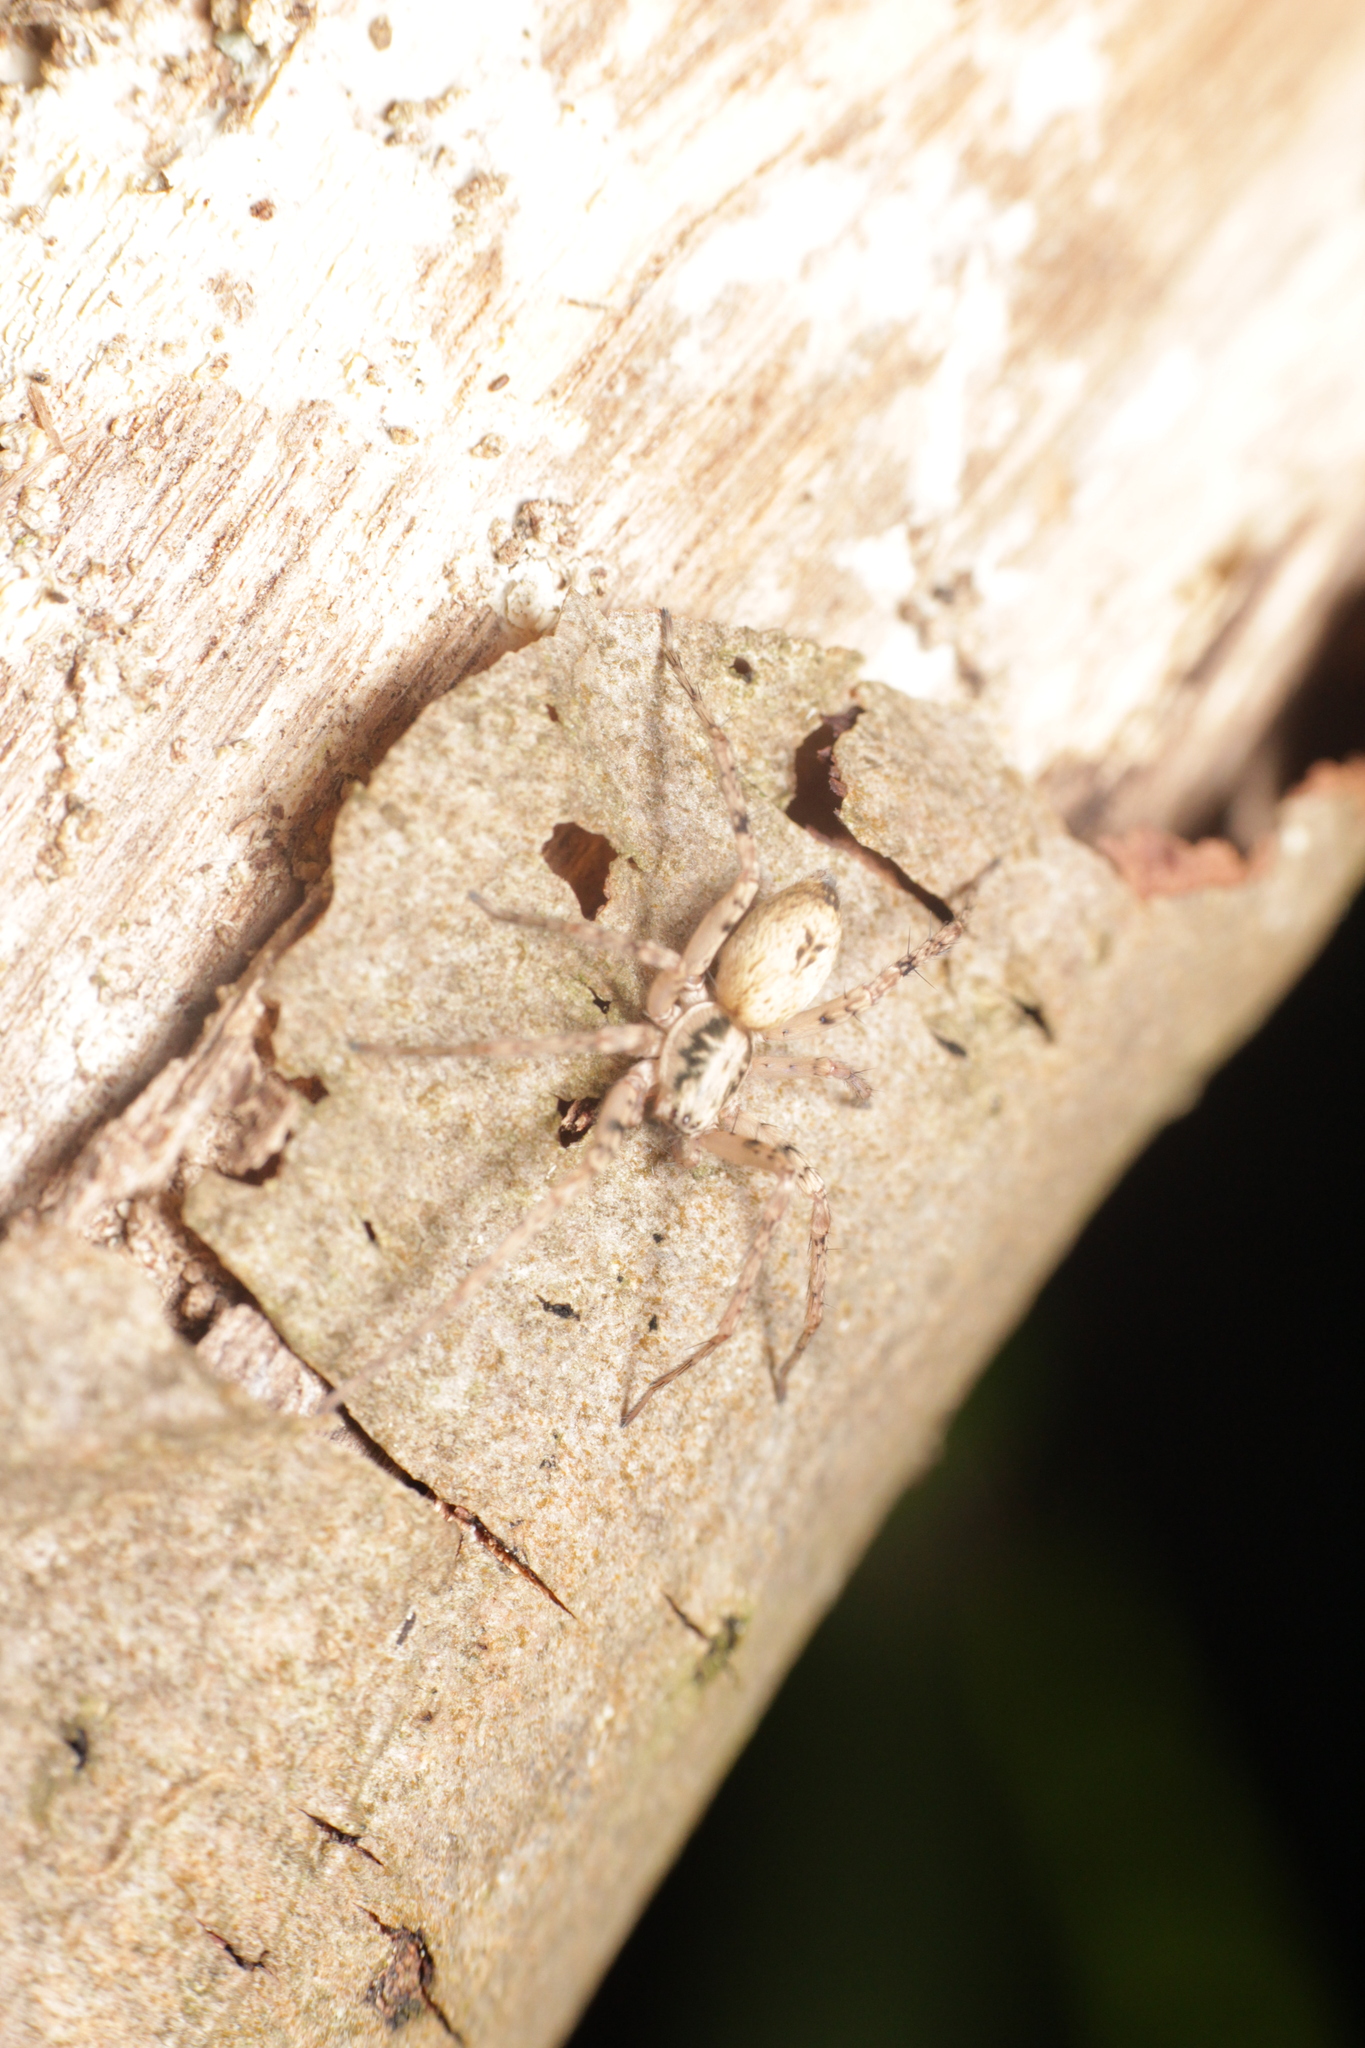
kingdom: Animalia
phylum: Arthropoda
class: Arachnida
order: Araneae
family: Anyphaenidae
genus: Anyphaena
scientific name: Anyphaena accentuata
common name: Buzzing spider
